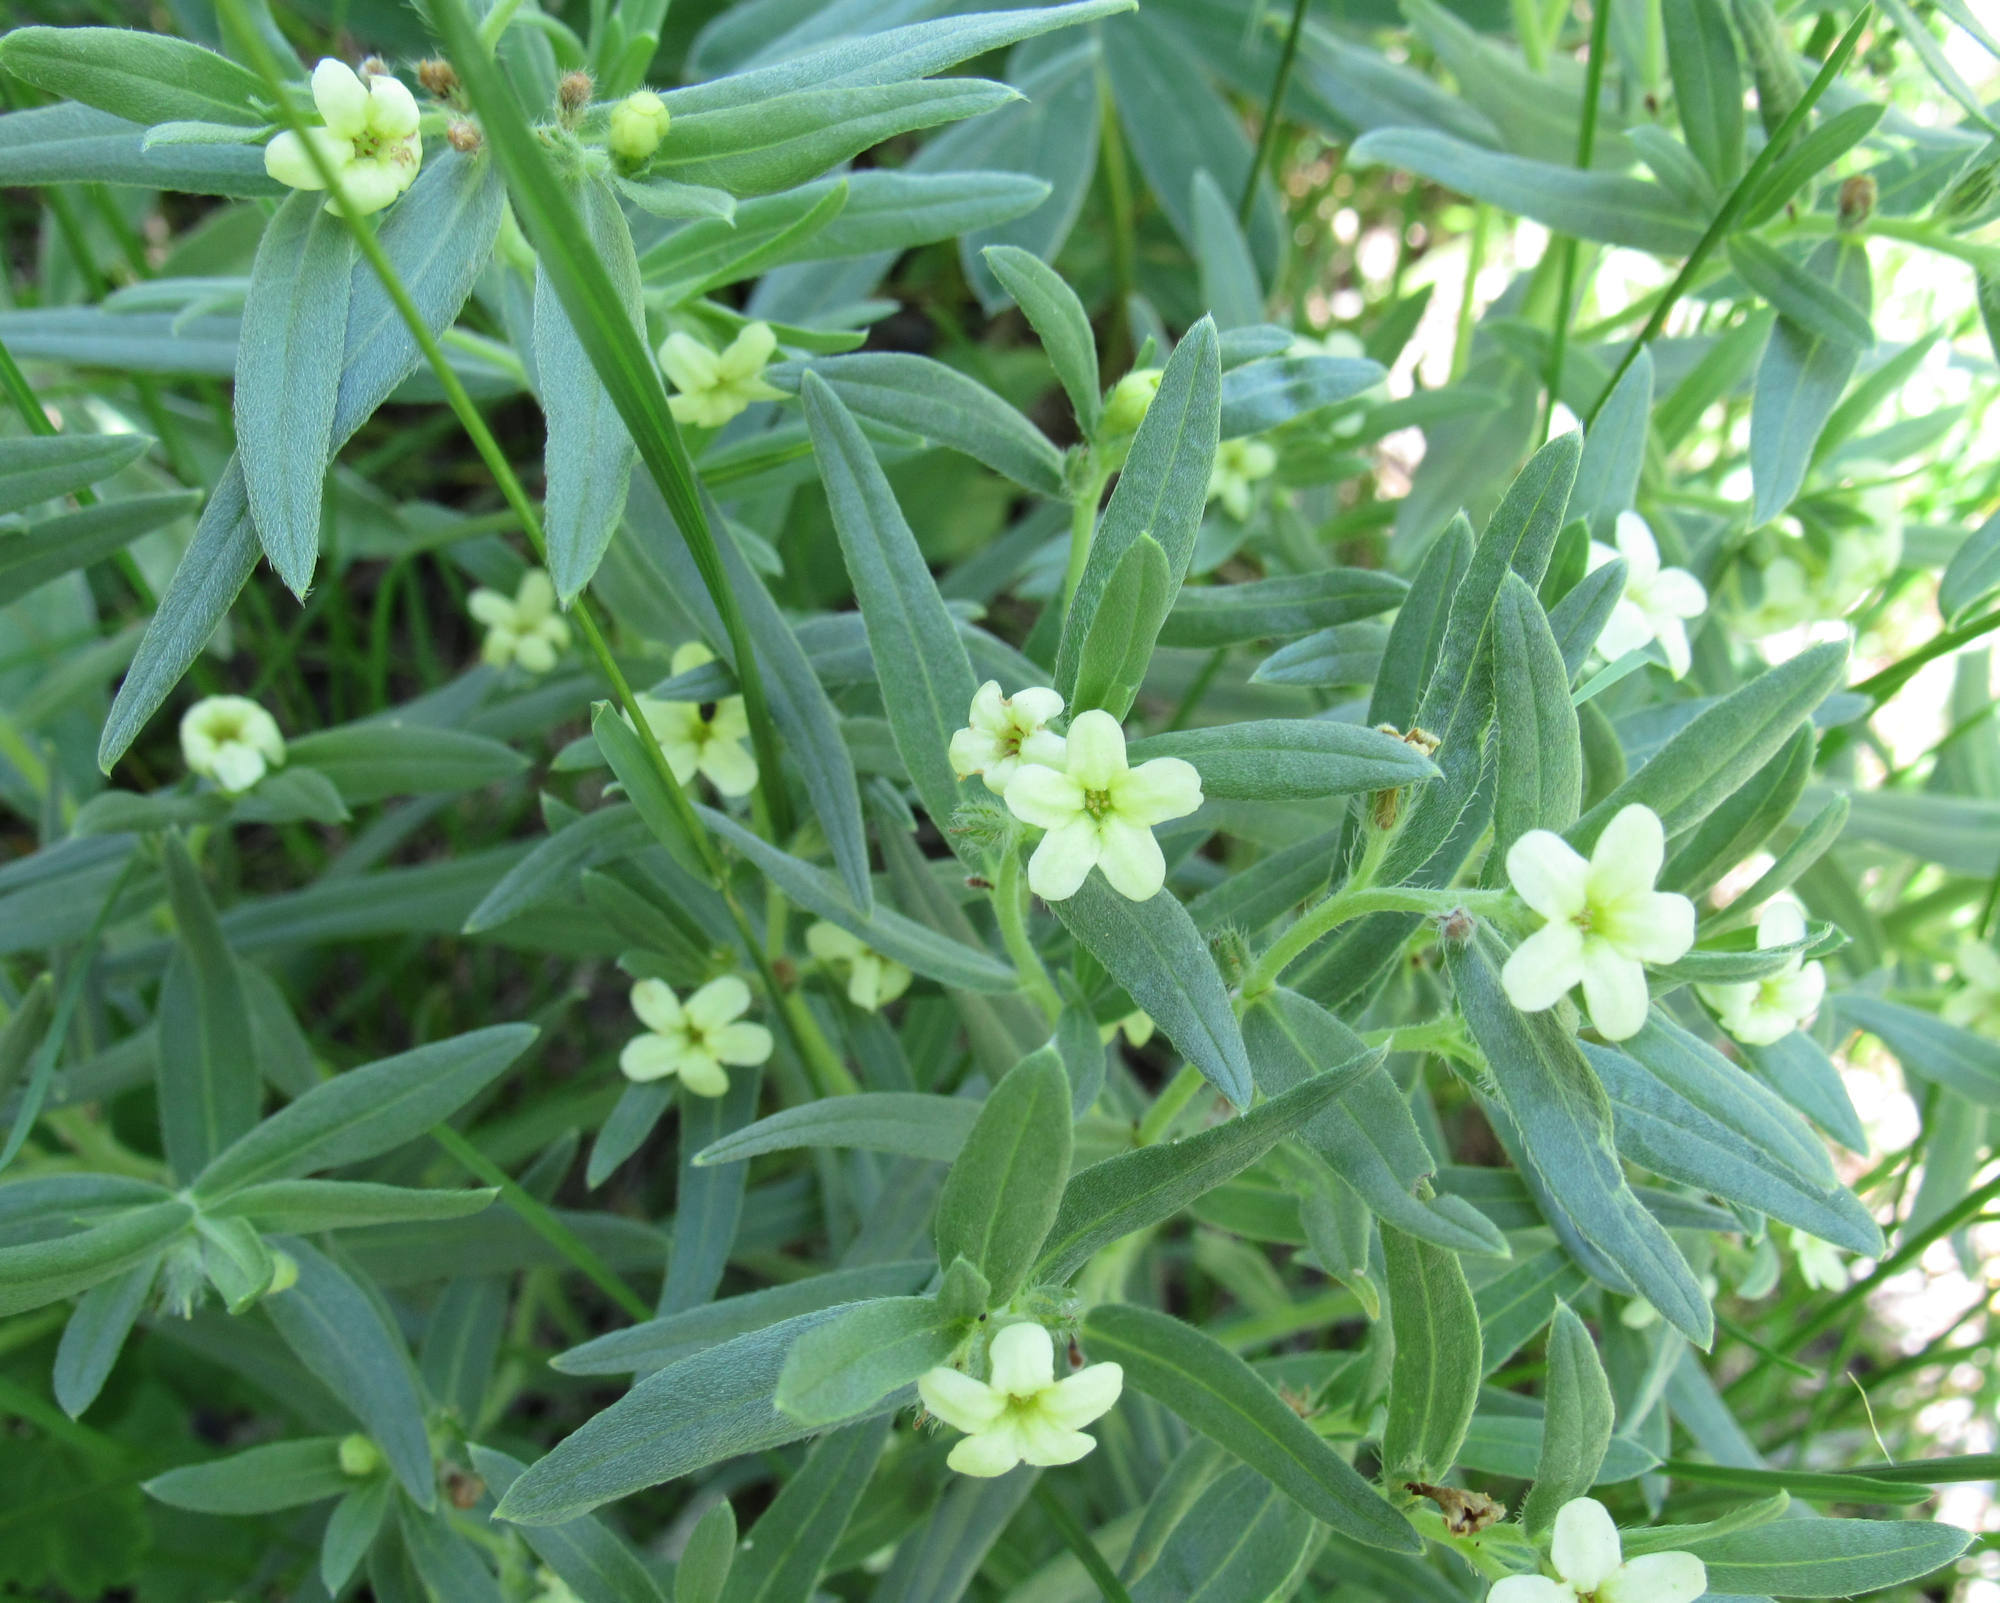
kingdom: Plantae
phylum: Tracheophyta
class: Magnoliopsida
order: Boraginales
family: Boraginaceae
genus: Lithospermum
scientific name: Lithospermum ruderale
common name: Western gromwell
